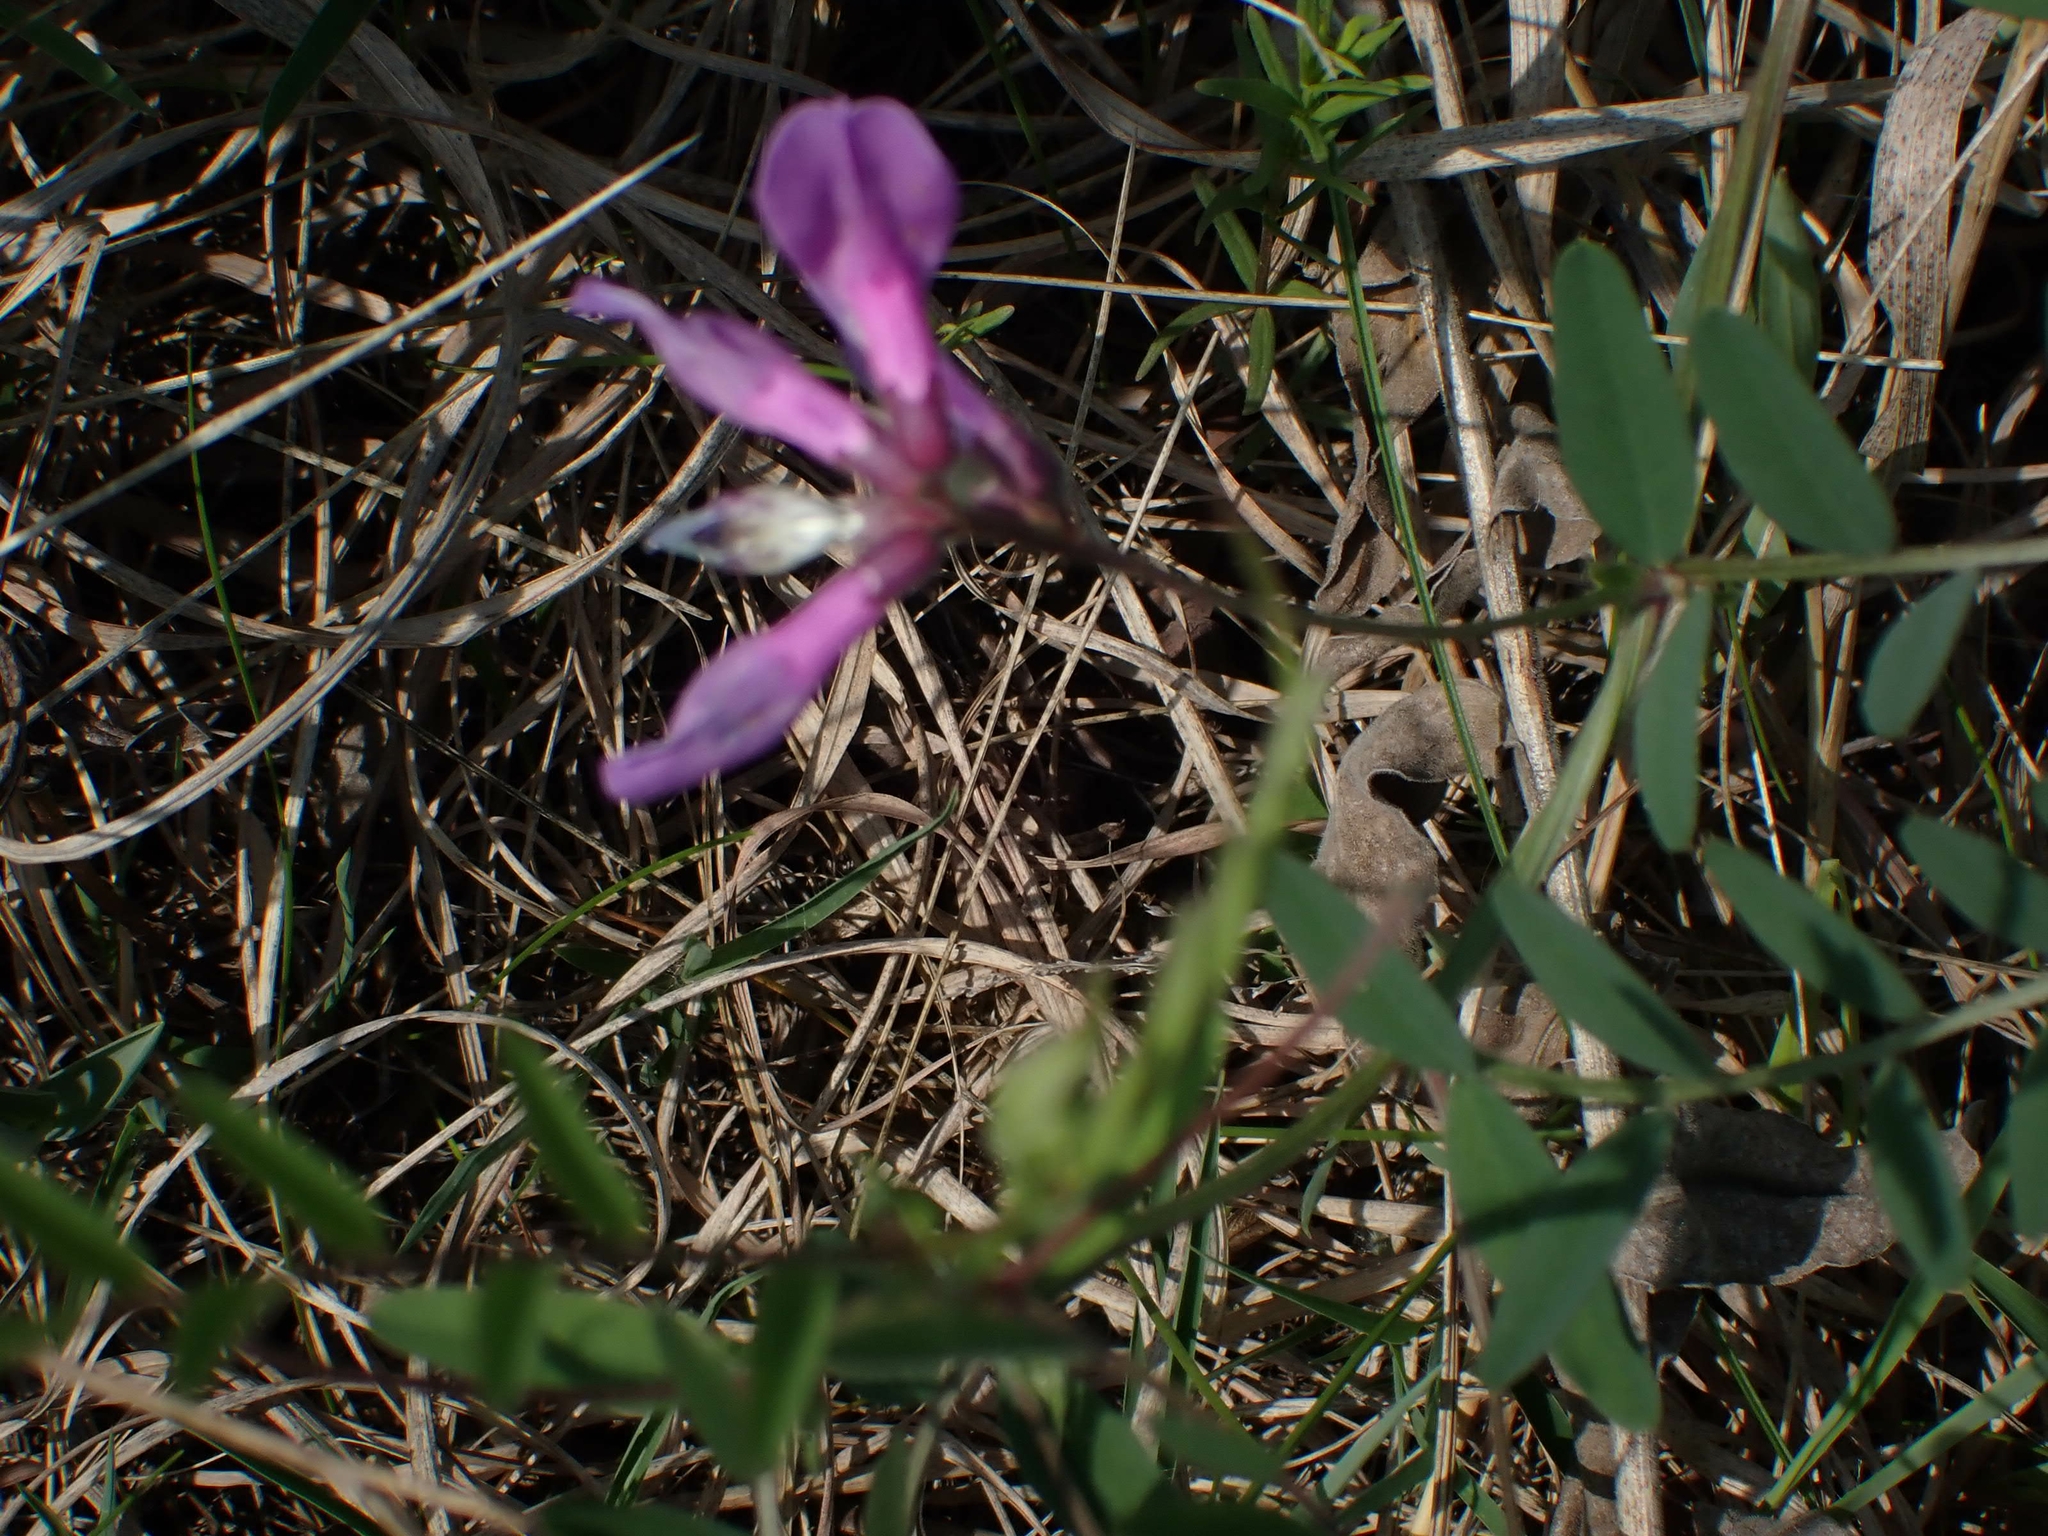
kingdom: Plantae
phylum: Tracheophyta
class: Magnoliopsida
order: Fabales
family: Fabaceae
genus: Vicia
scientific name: Vicia americana
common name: American vetch
